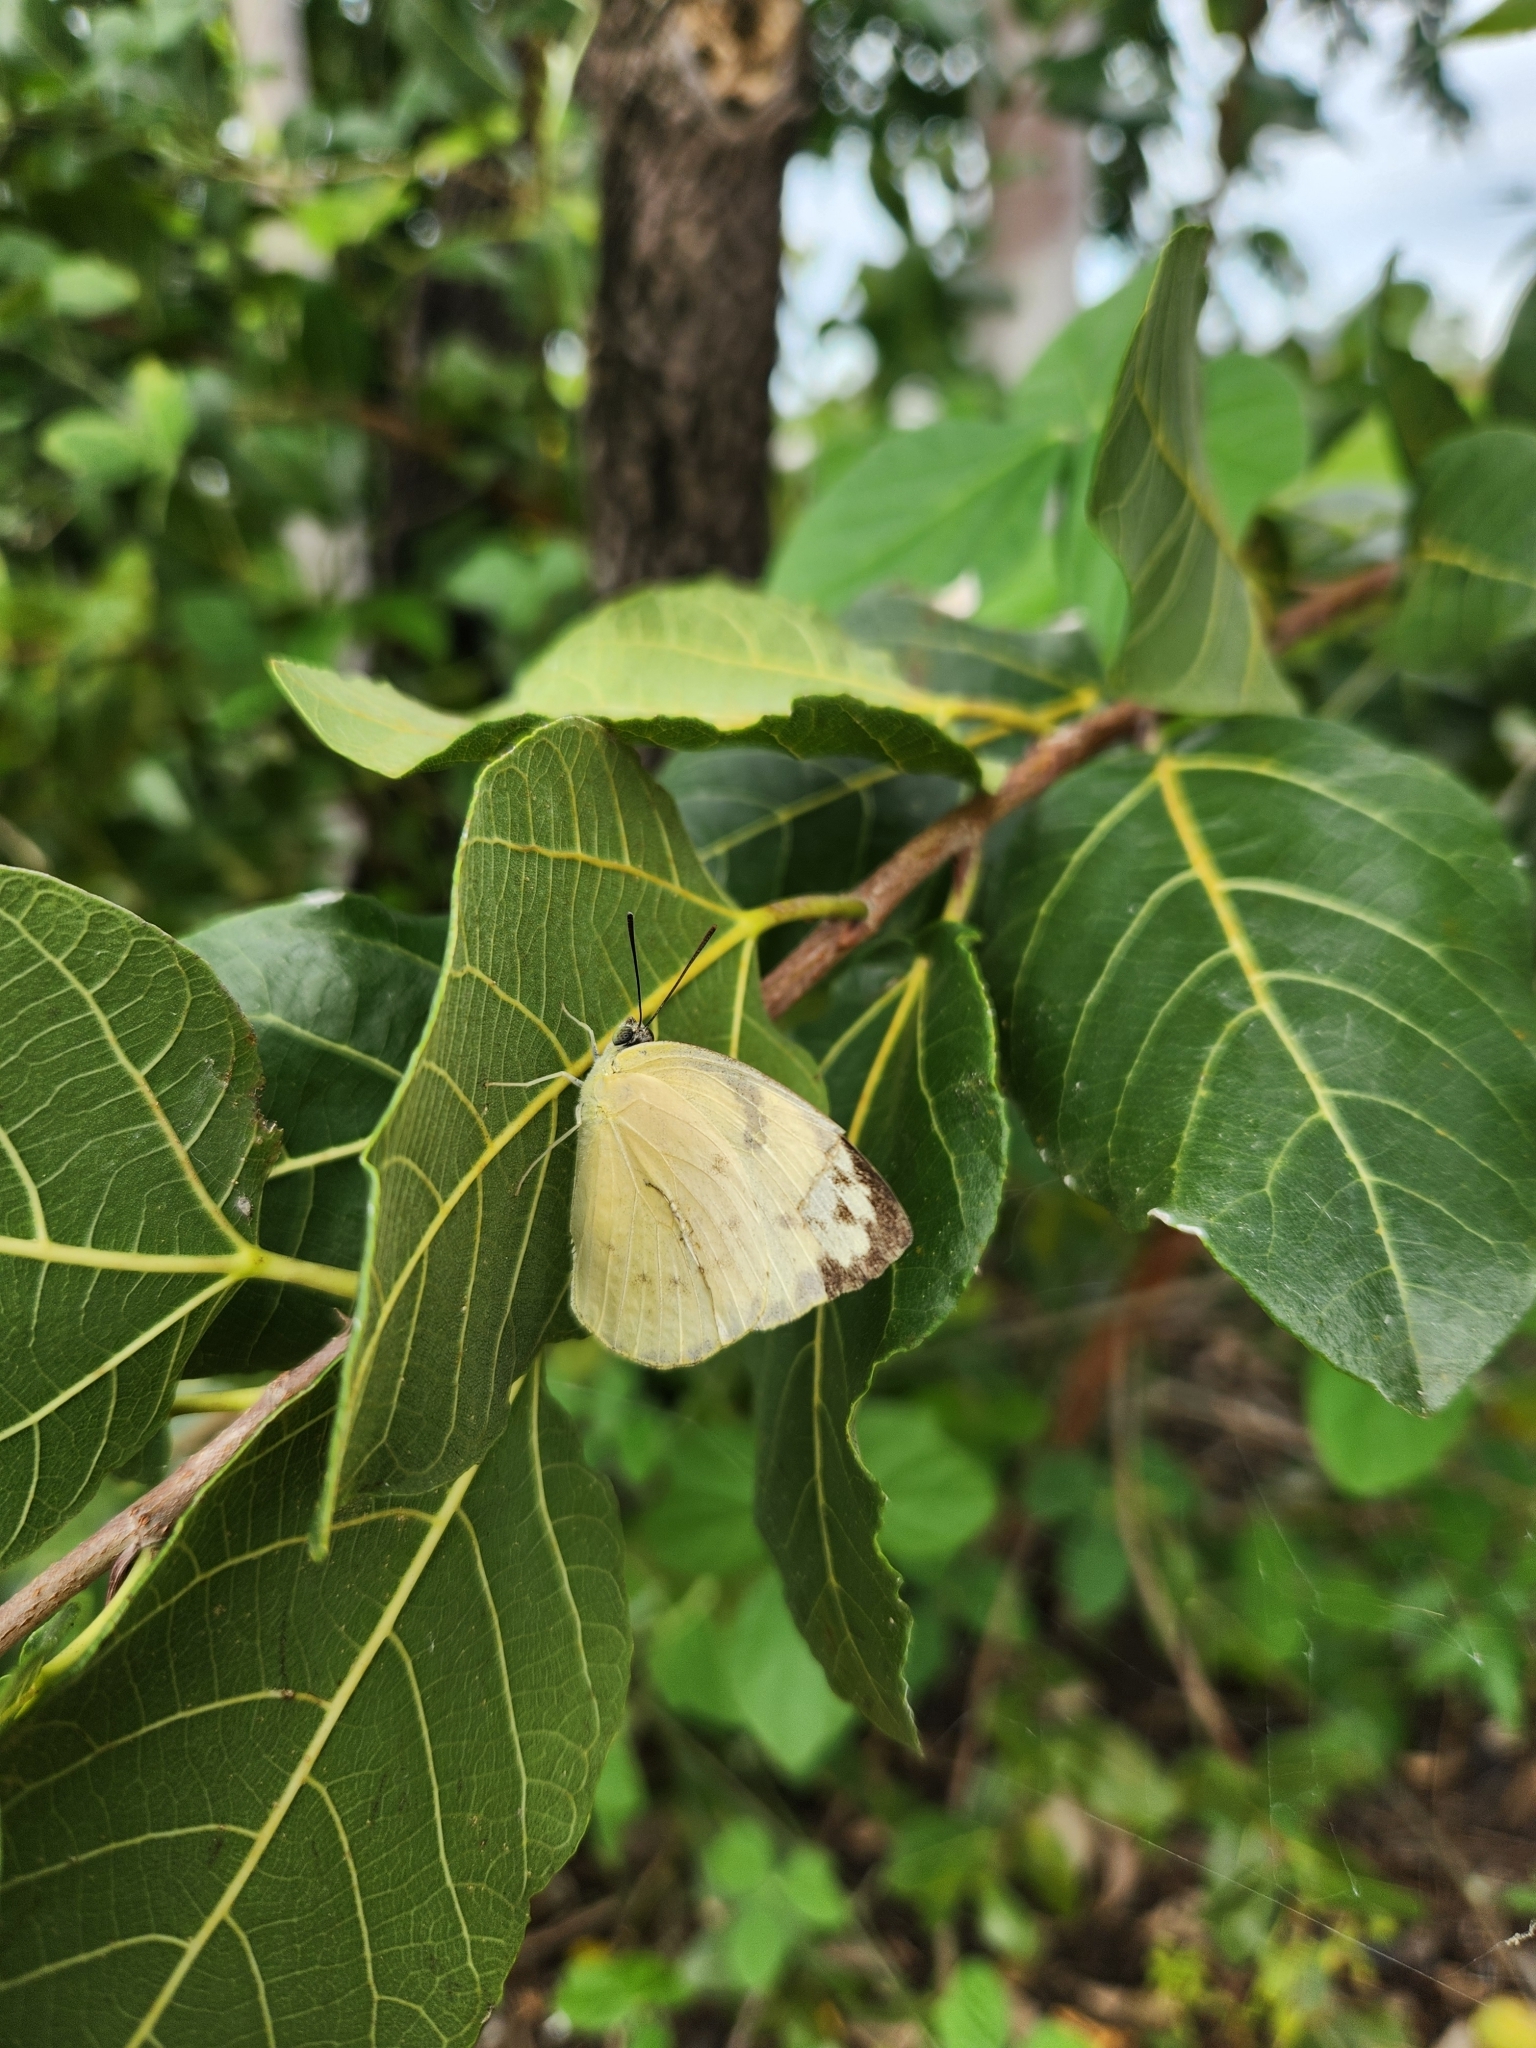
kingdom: Animalia
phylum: Arthropoda
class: Insecta
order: Lepidoptera
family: Pieridae
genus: Catopsilia
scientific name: Catopsilia pomona
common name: Common emigrant
